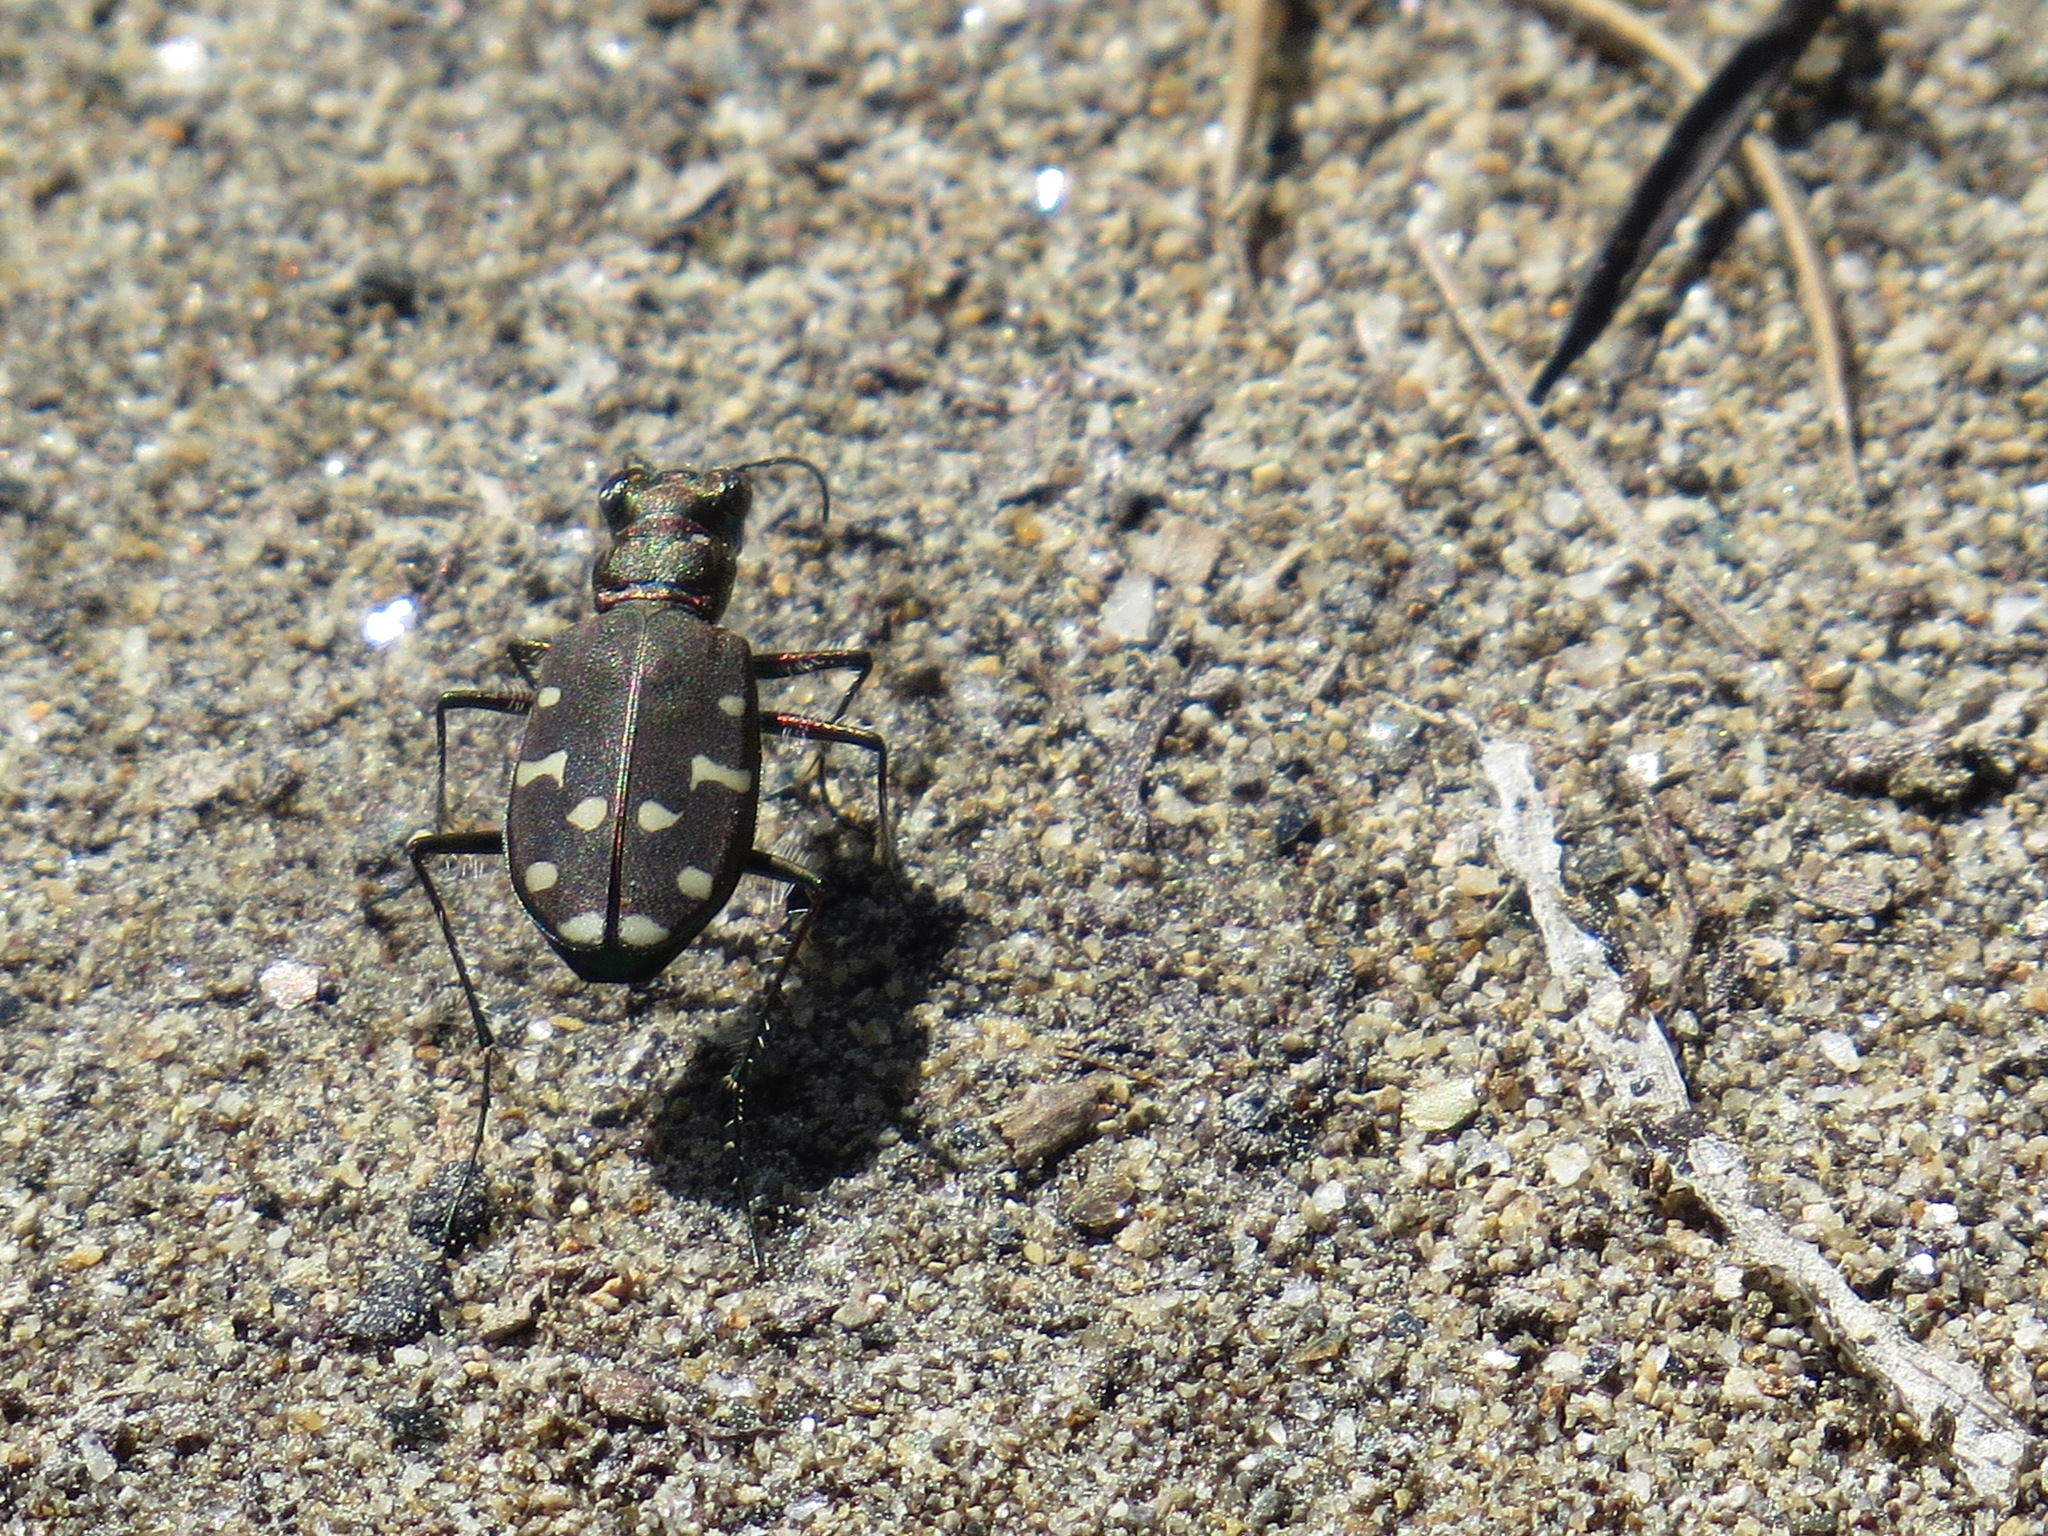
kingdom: Animalia
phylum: Arthropoda
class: Insecta
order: Coleoptera
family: Carabidae
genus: Cicindela
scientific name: Cicindela oregona
